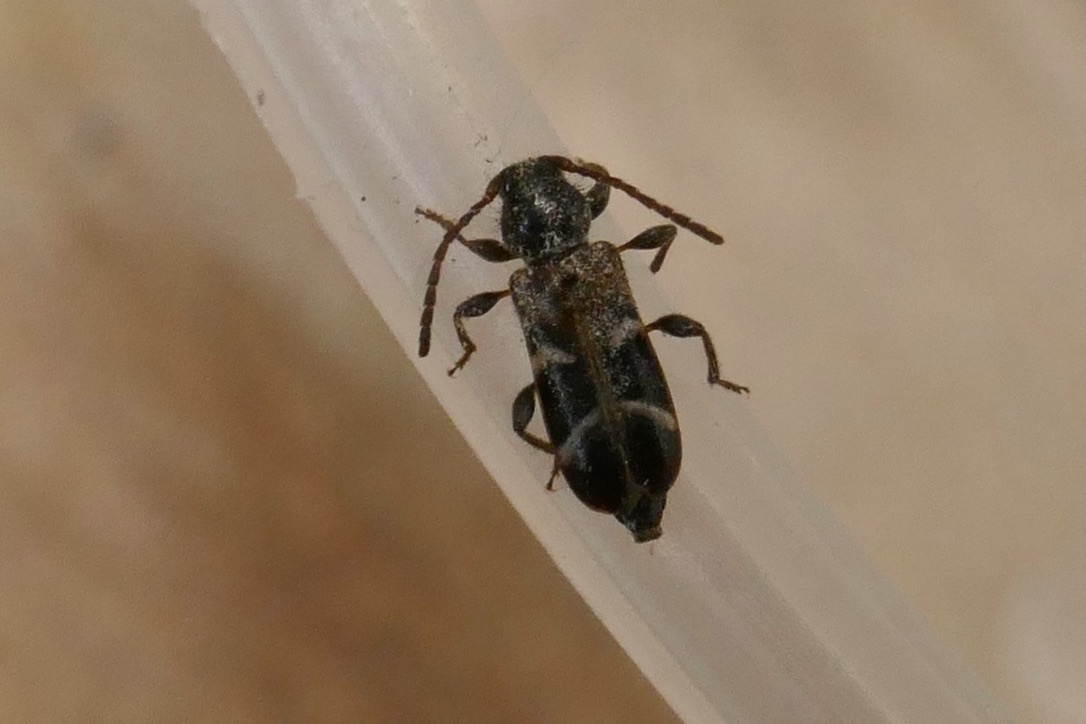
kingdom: Animalia
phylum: Arthropoda
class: Insecta
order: Coleoptera
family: Cerambycidae
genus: Poecilium
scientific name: Poecilium alni
